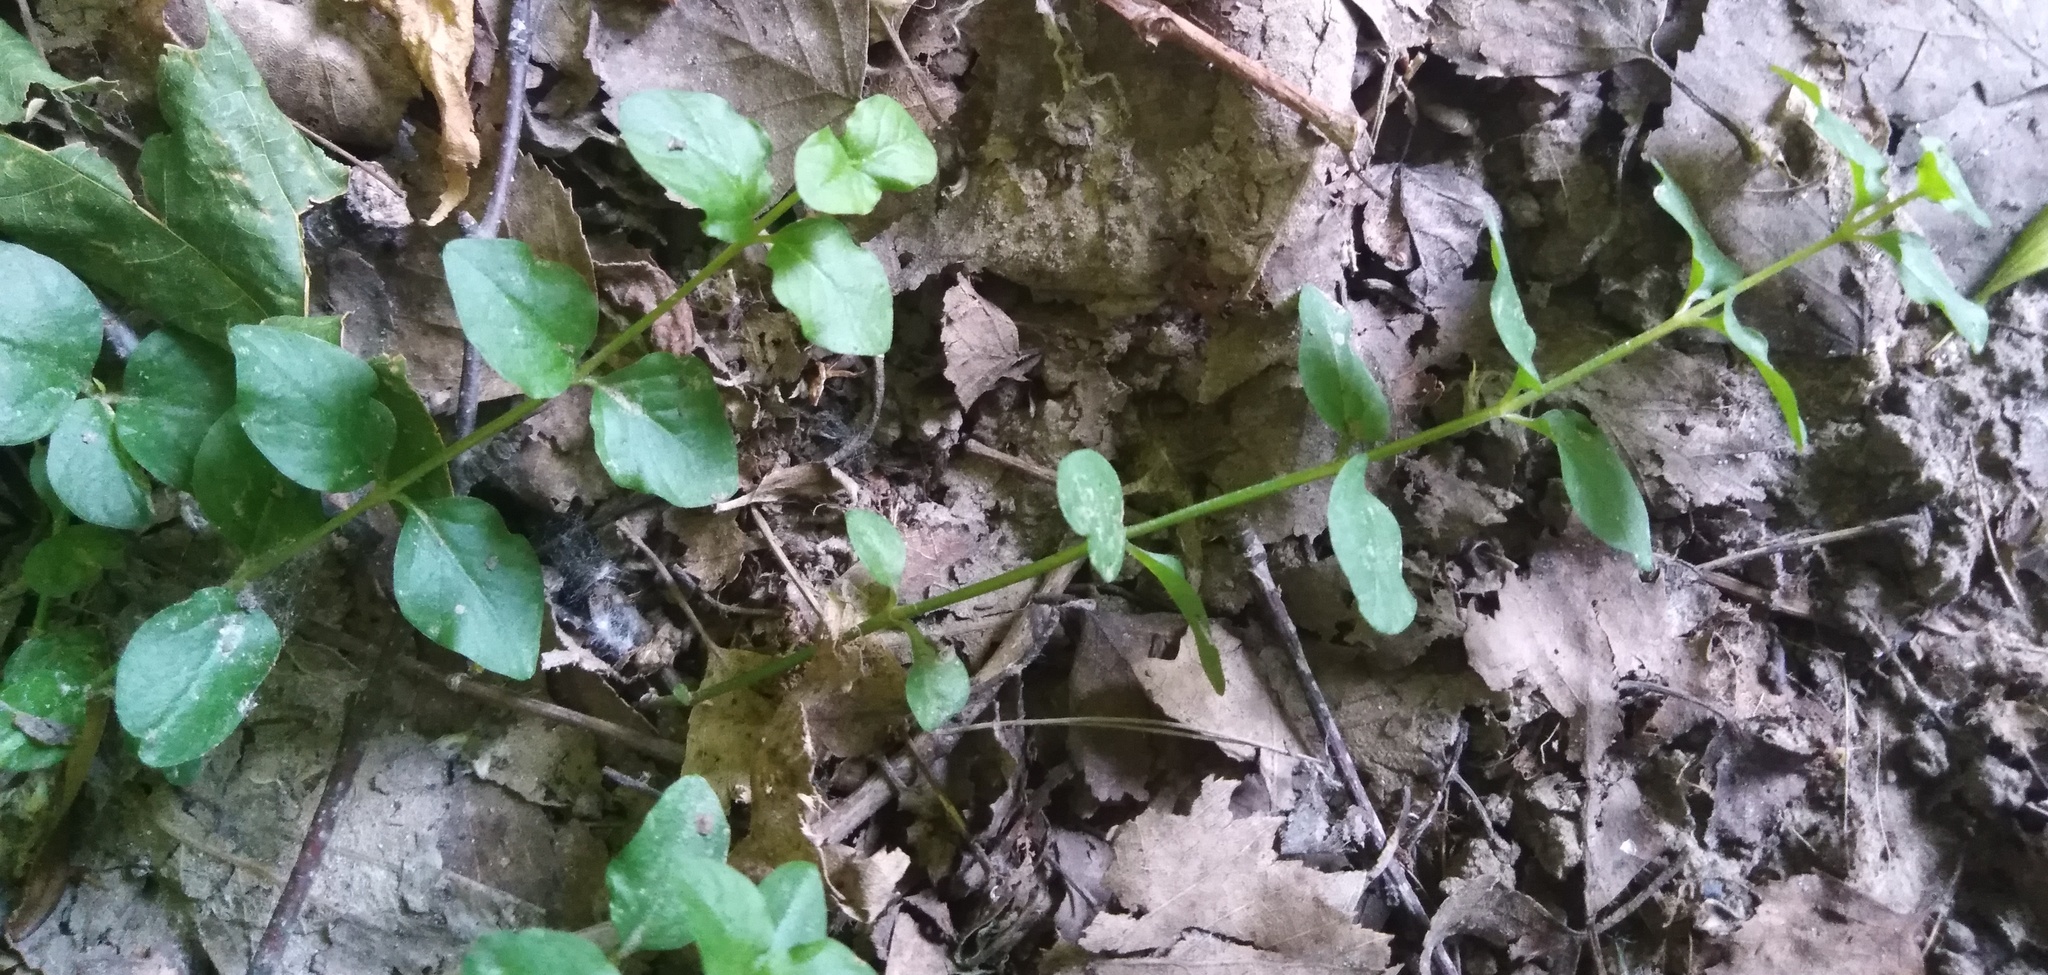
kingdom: Plantae
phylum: Tracheophyta
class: Magnoliopsida
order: Ericales
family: Primulaceae
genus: Lysimachia
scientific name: Lysimachia nummularia
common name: Moneywort
